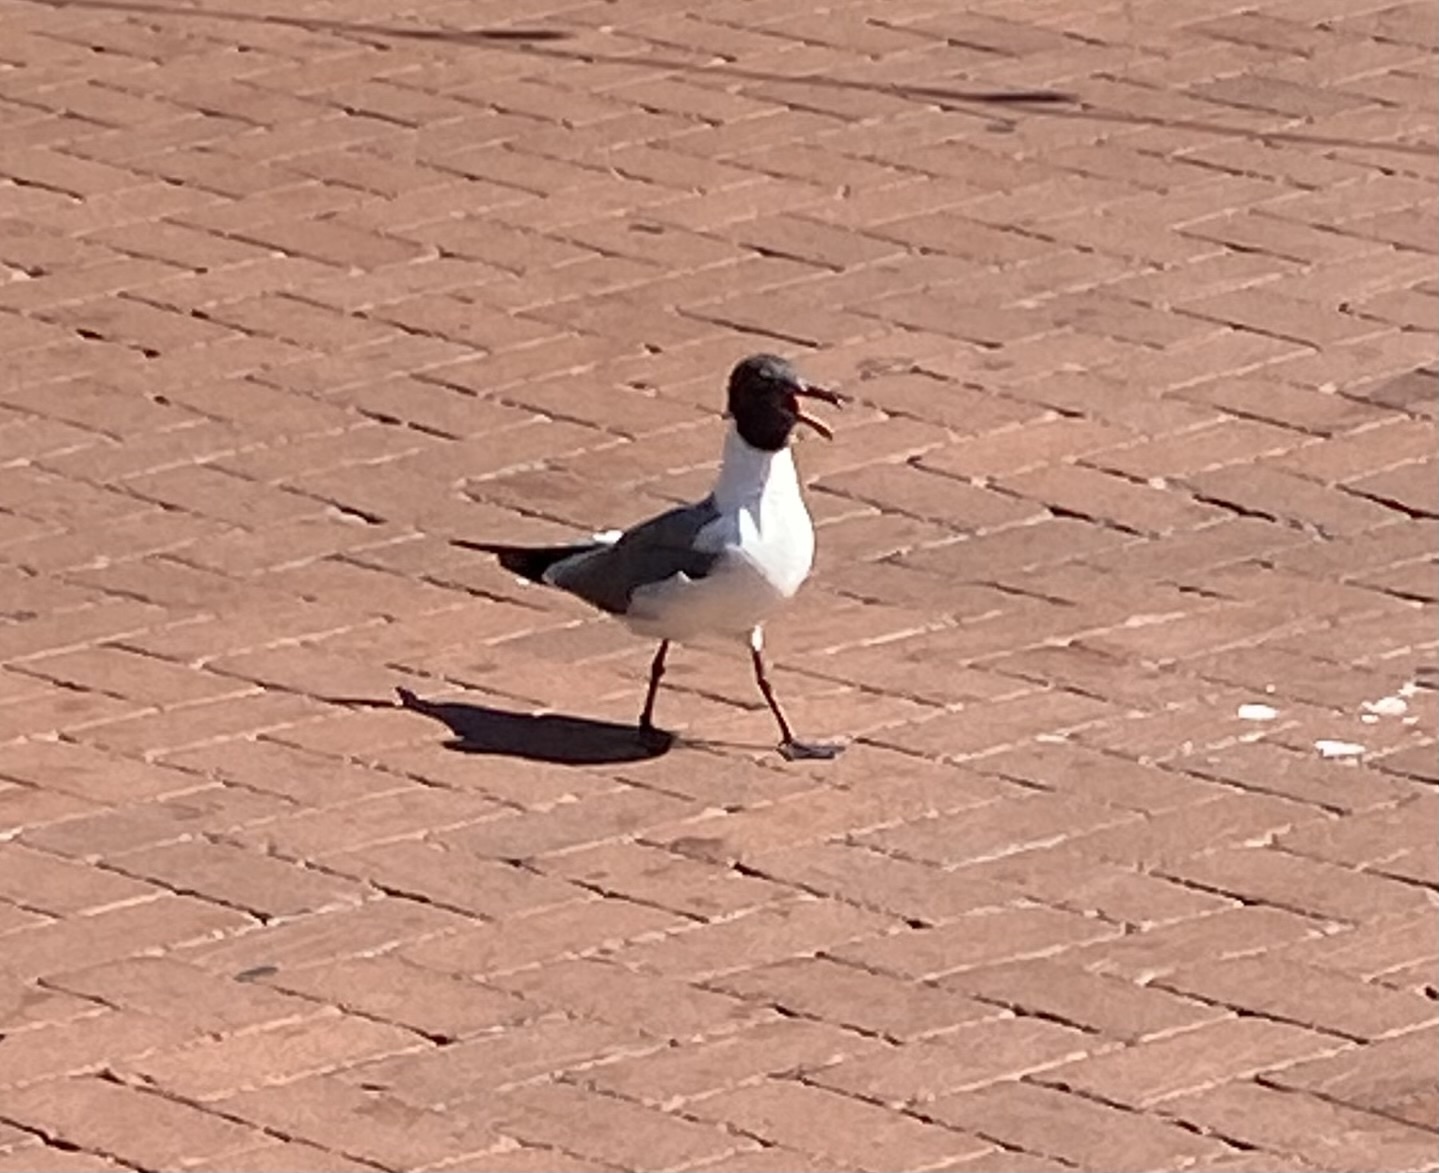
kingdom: Animalia
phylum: Chordata
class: Aves
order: Charadriiformes
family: Laridae
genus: Leucophaeus
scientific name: Leucophaeus atricilla
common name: Laughing gull
